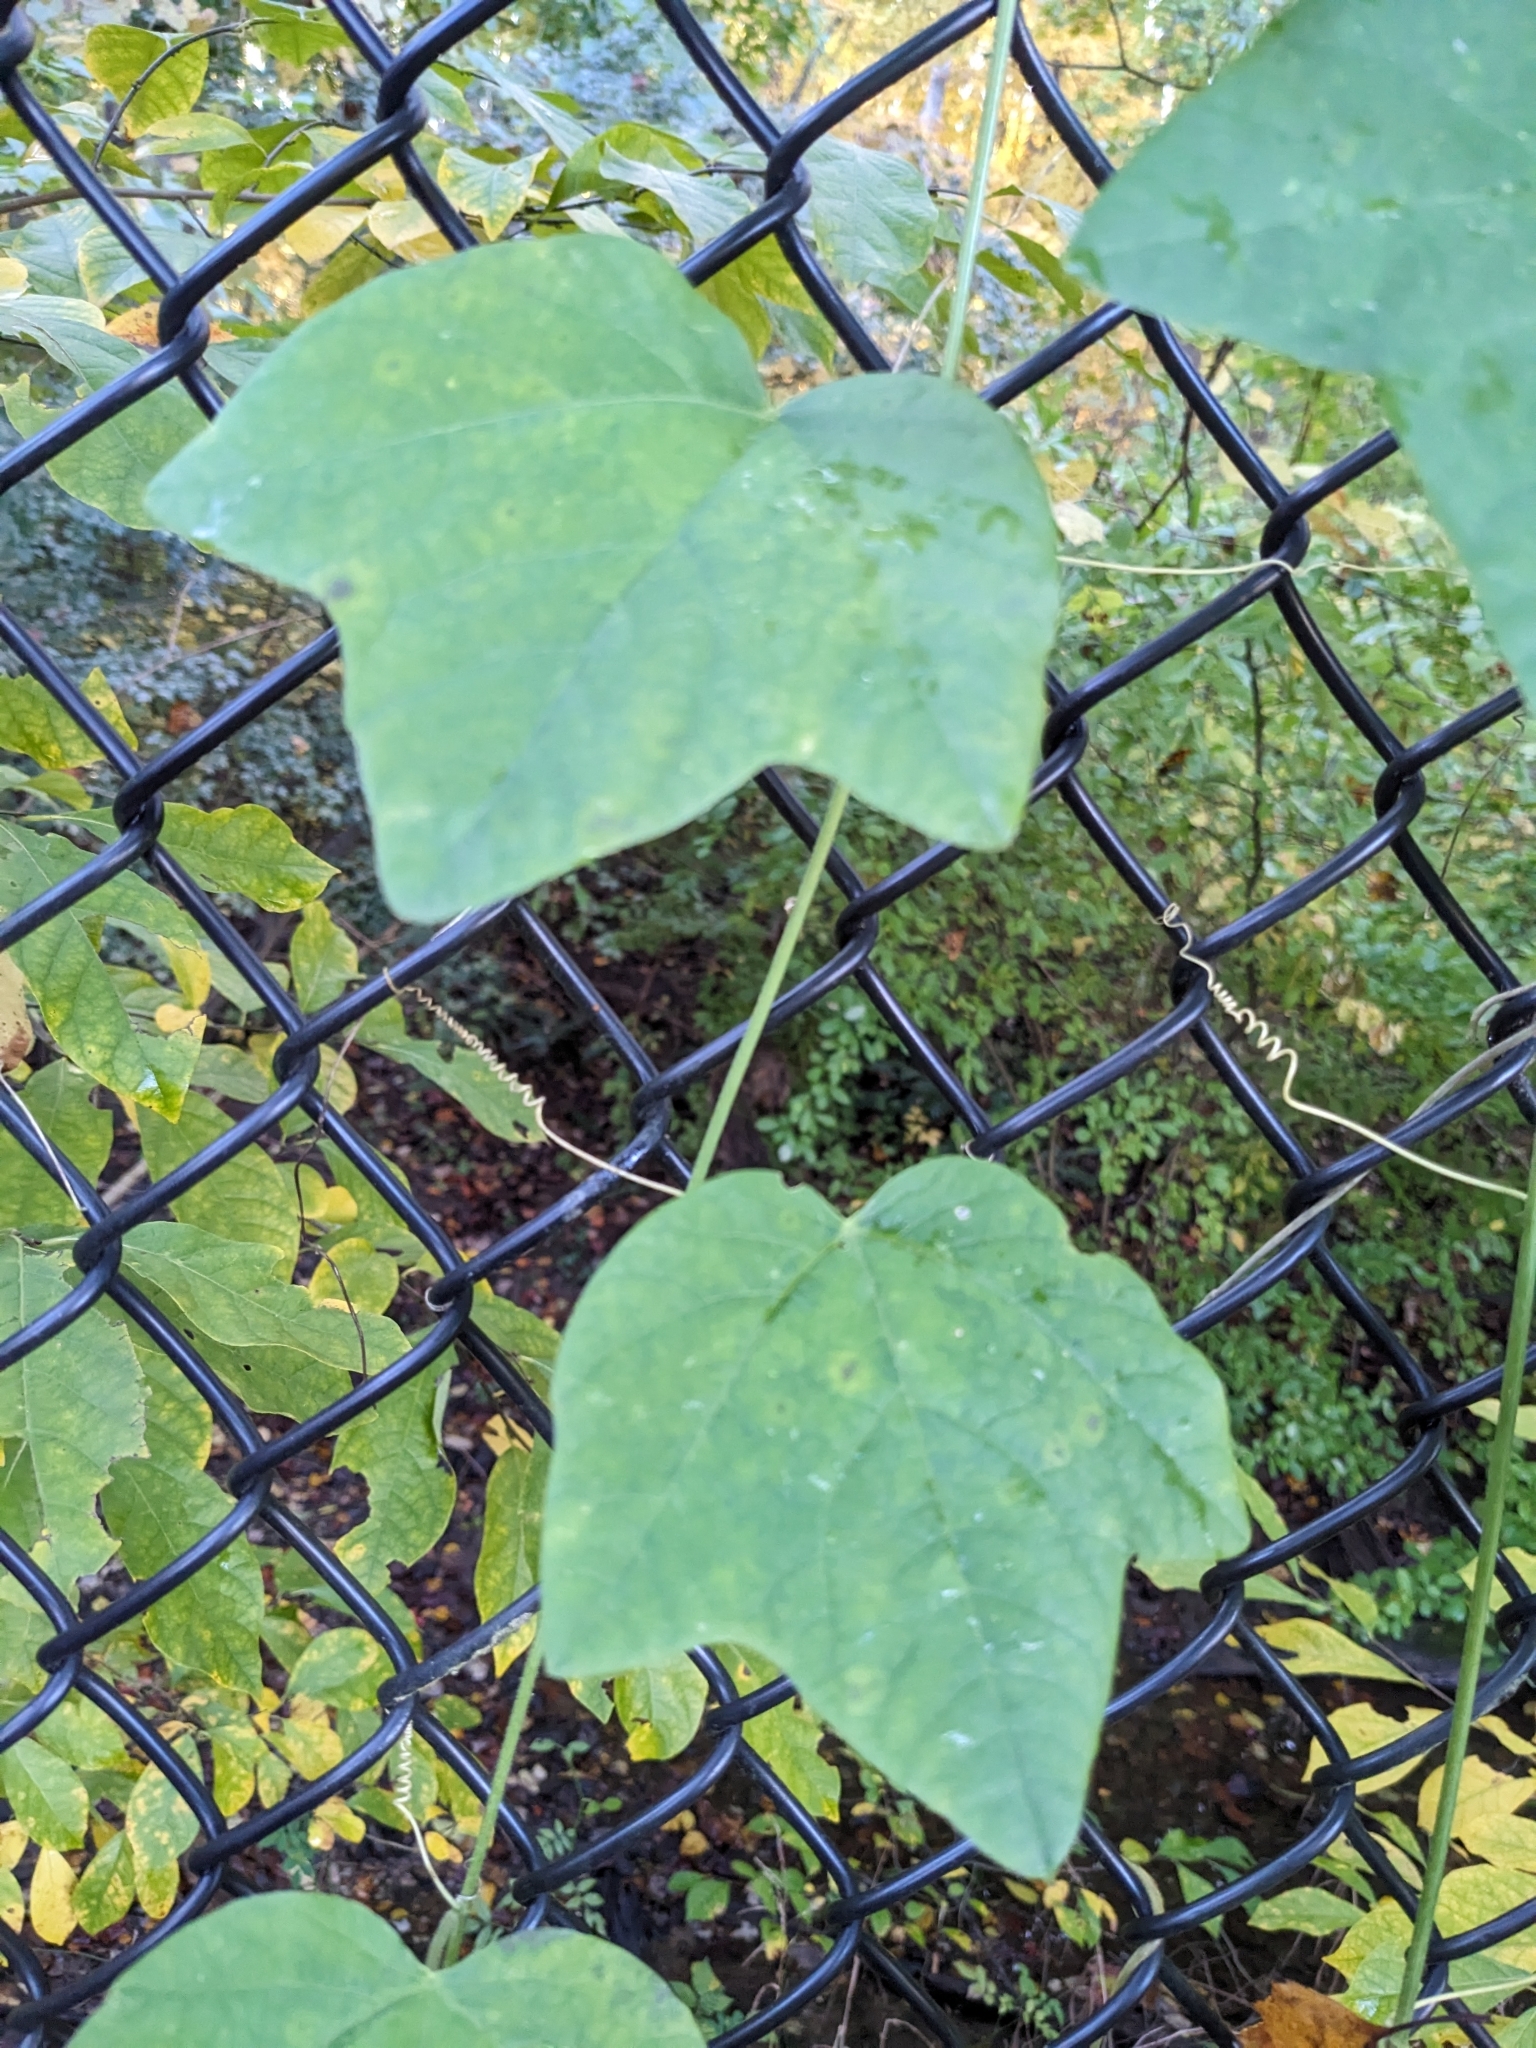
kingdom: Plantae
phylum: Tracheophyta
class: Magnoliopsida
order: Malpighiales
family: Passifloraceae
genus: Passiflora
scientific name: Passiflora lutea
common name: Yellow passionflower
